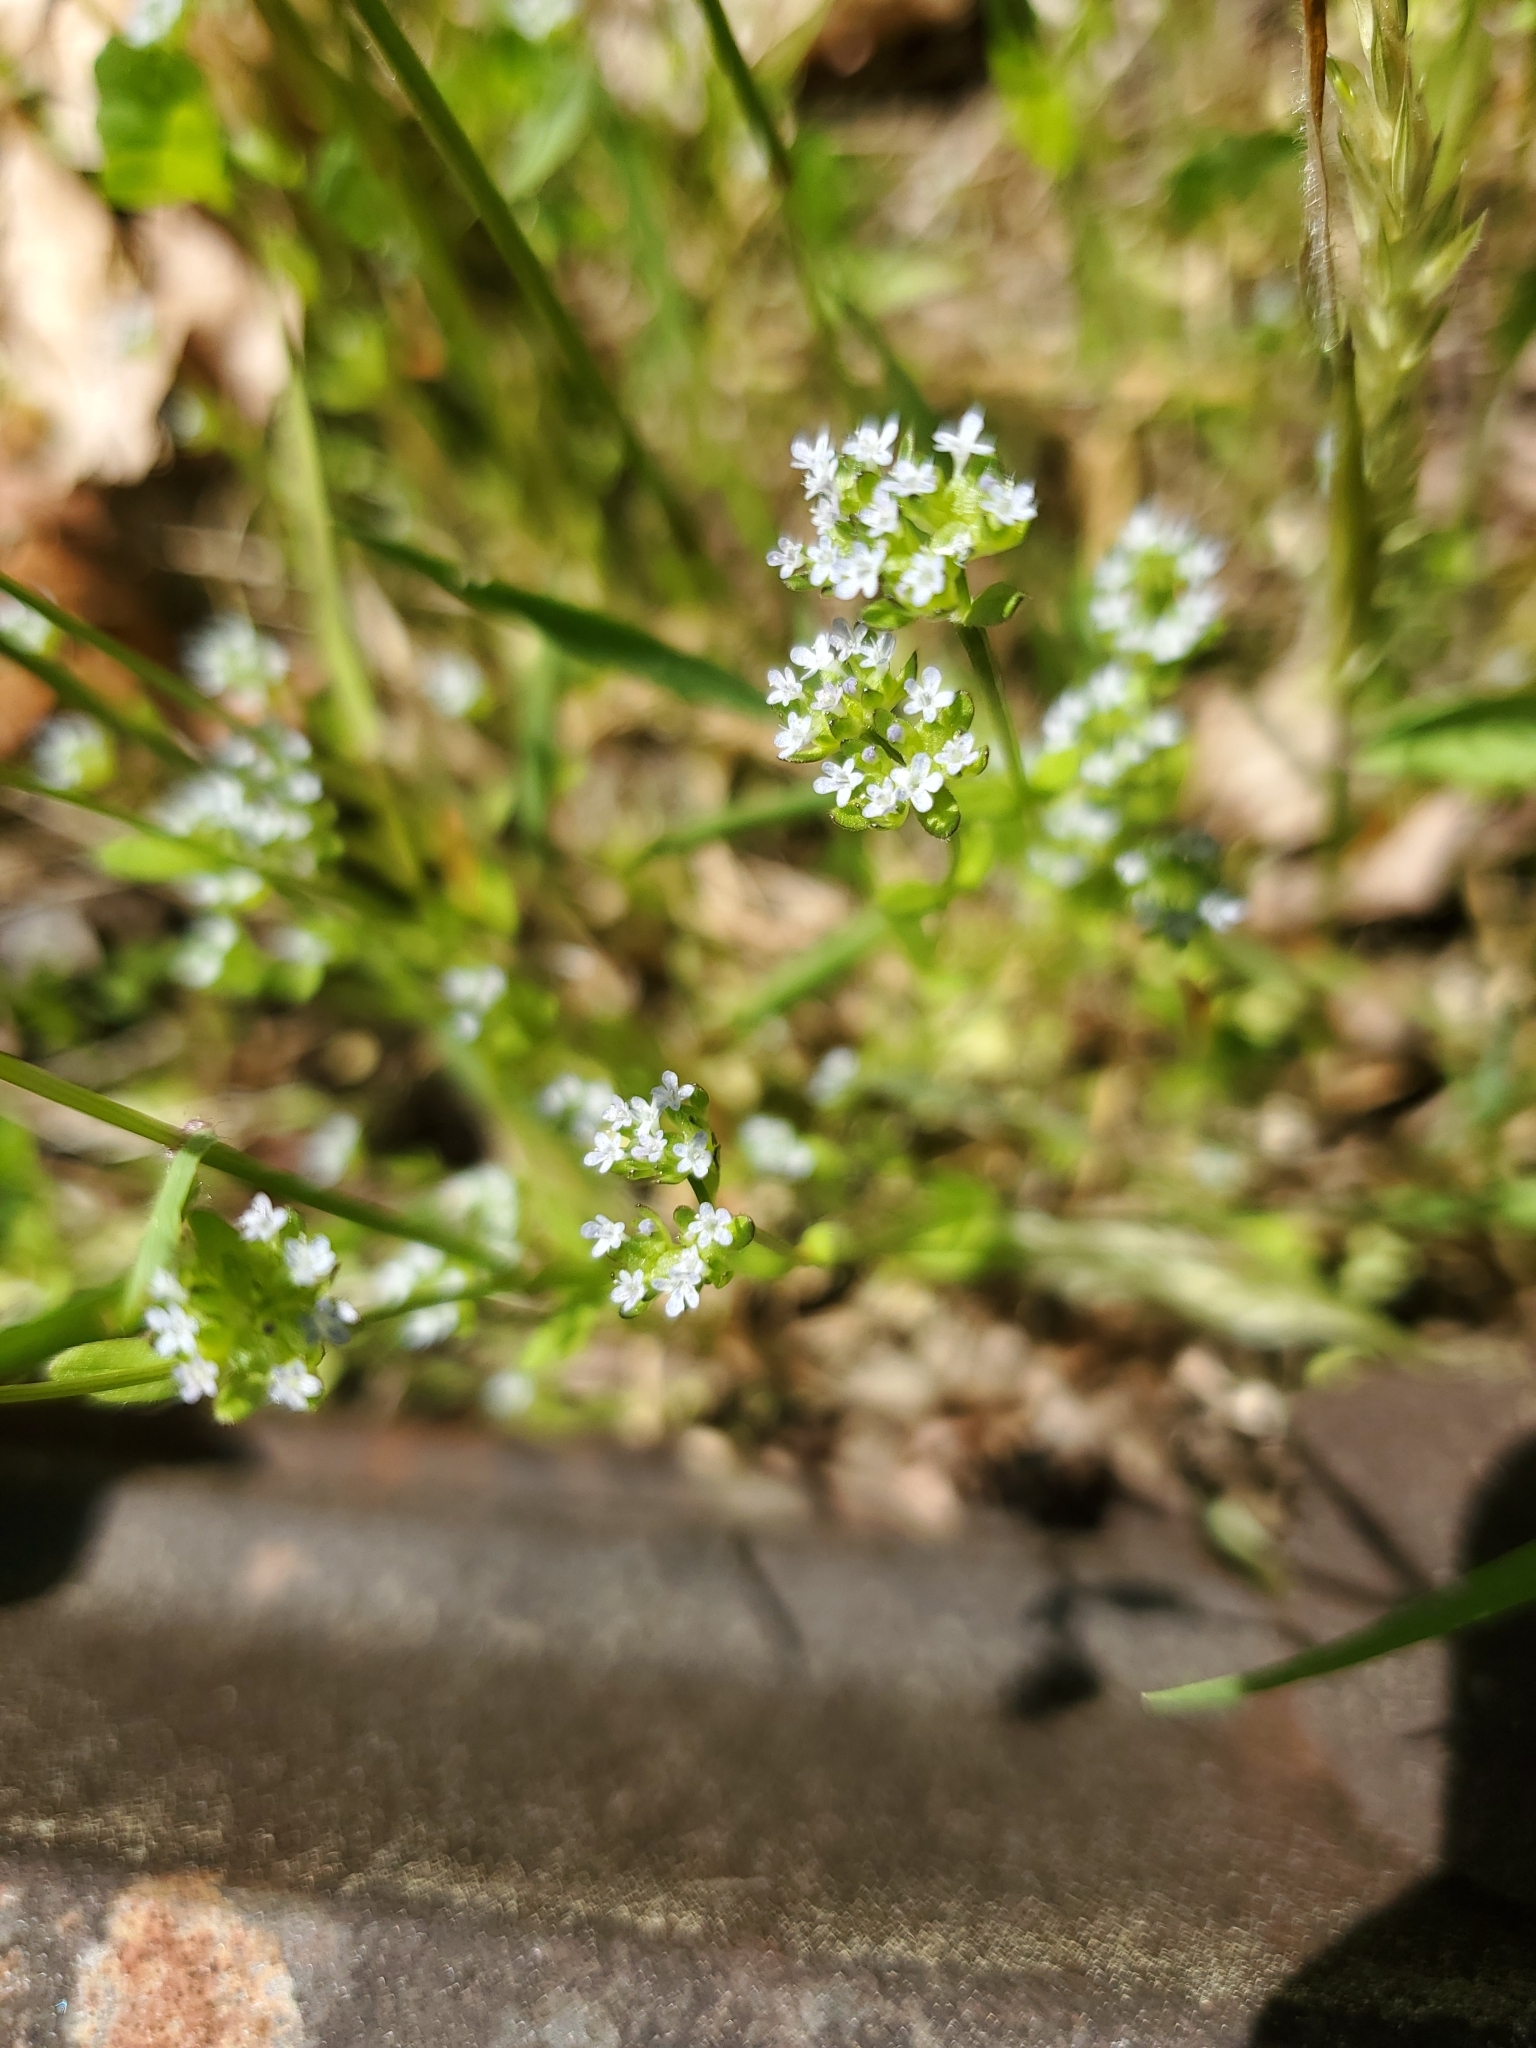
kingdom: Plantae
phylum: Tracheophyta
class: Magnoliopsida
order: Dipsacales
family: Caprifoliaceae
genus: Valerianella
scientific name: Valerianella locusta
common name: Common cornsalad
